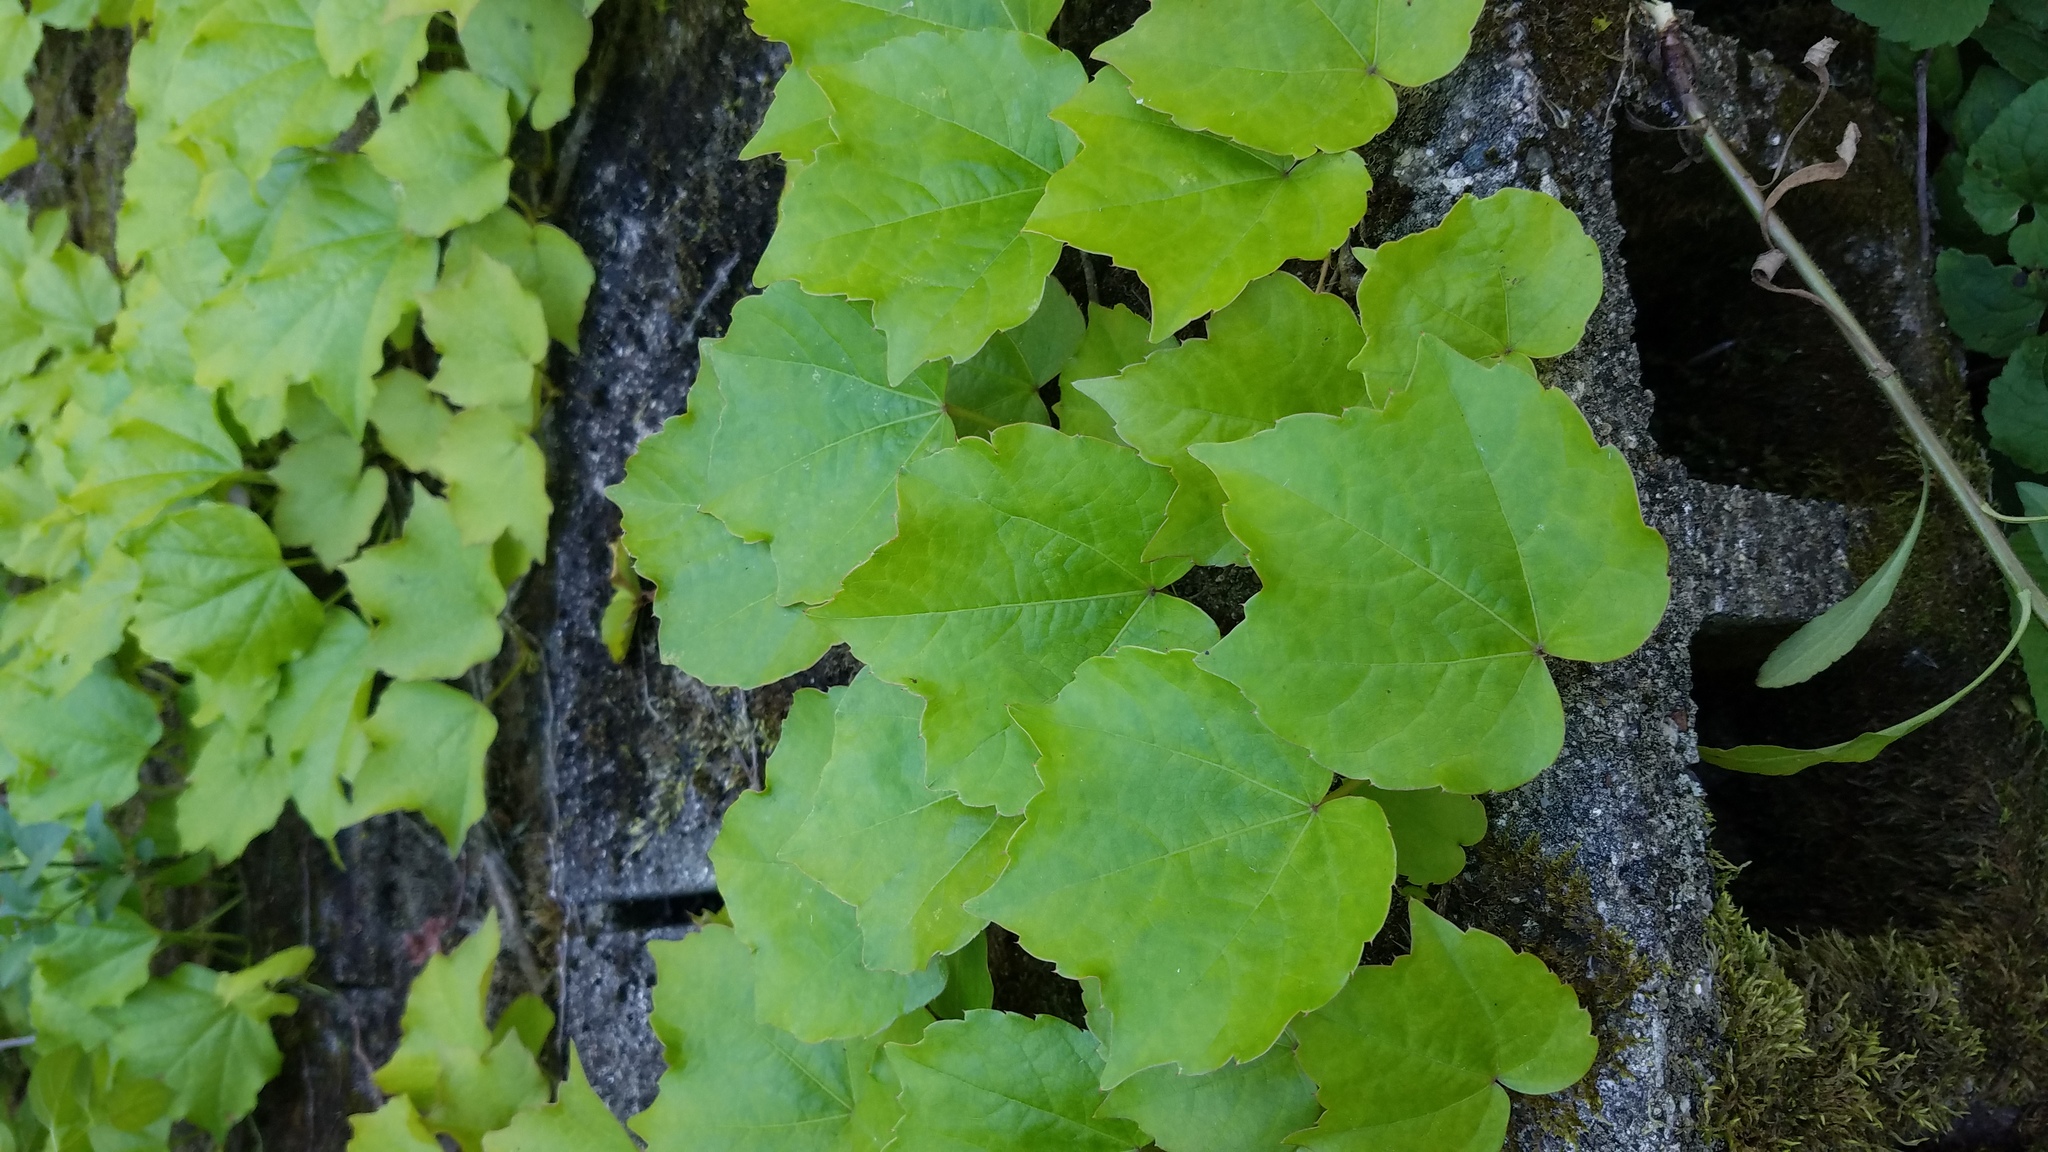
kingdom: Plantae
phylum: Tracheophyta
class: Magnoliopsida
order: Vitales
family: Vitaceae
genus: Parthenocissus
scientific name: Parthenocissus tricuspidata
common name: Boston ivy
